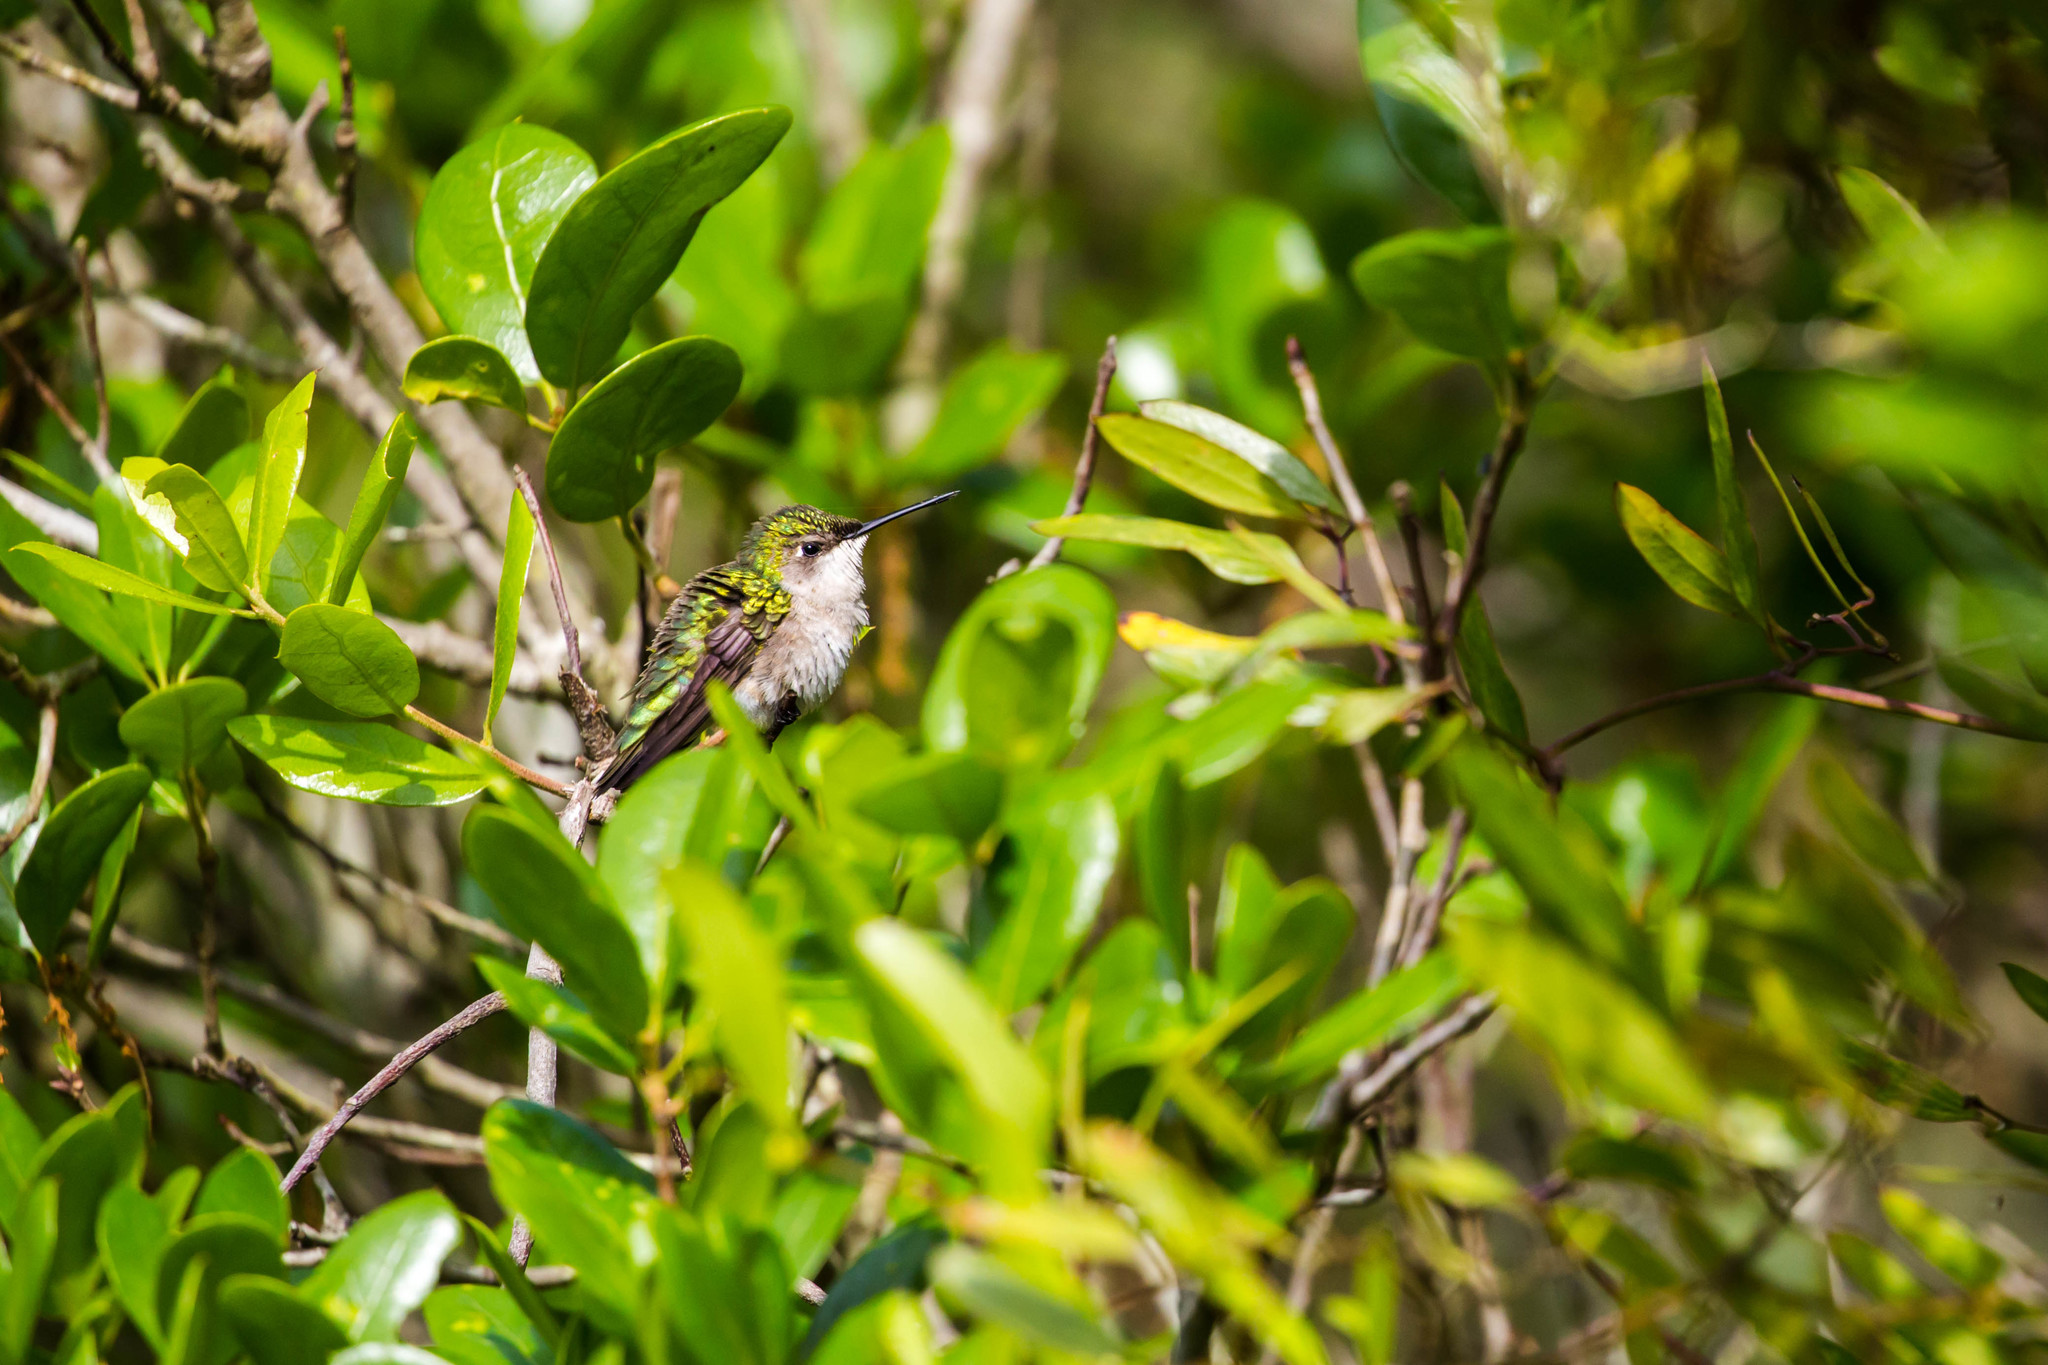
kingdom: Animalia
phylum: Chordata
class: Aves
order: Apodiformes
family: Trochilidae
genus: Archilochus
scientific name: Archilochus colubris
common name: Ruby-throated hummingbird
